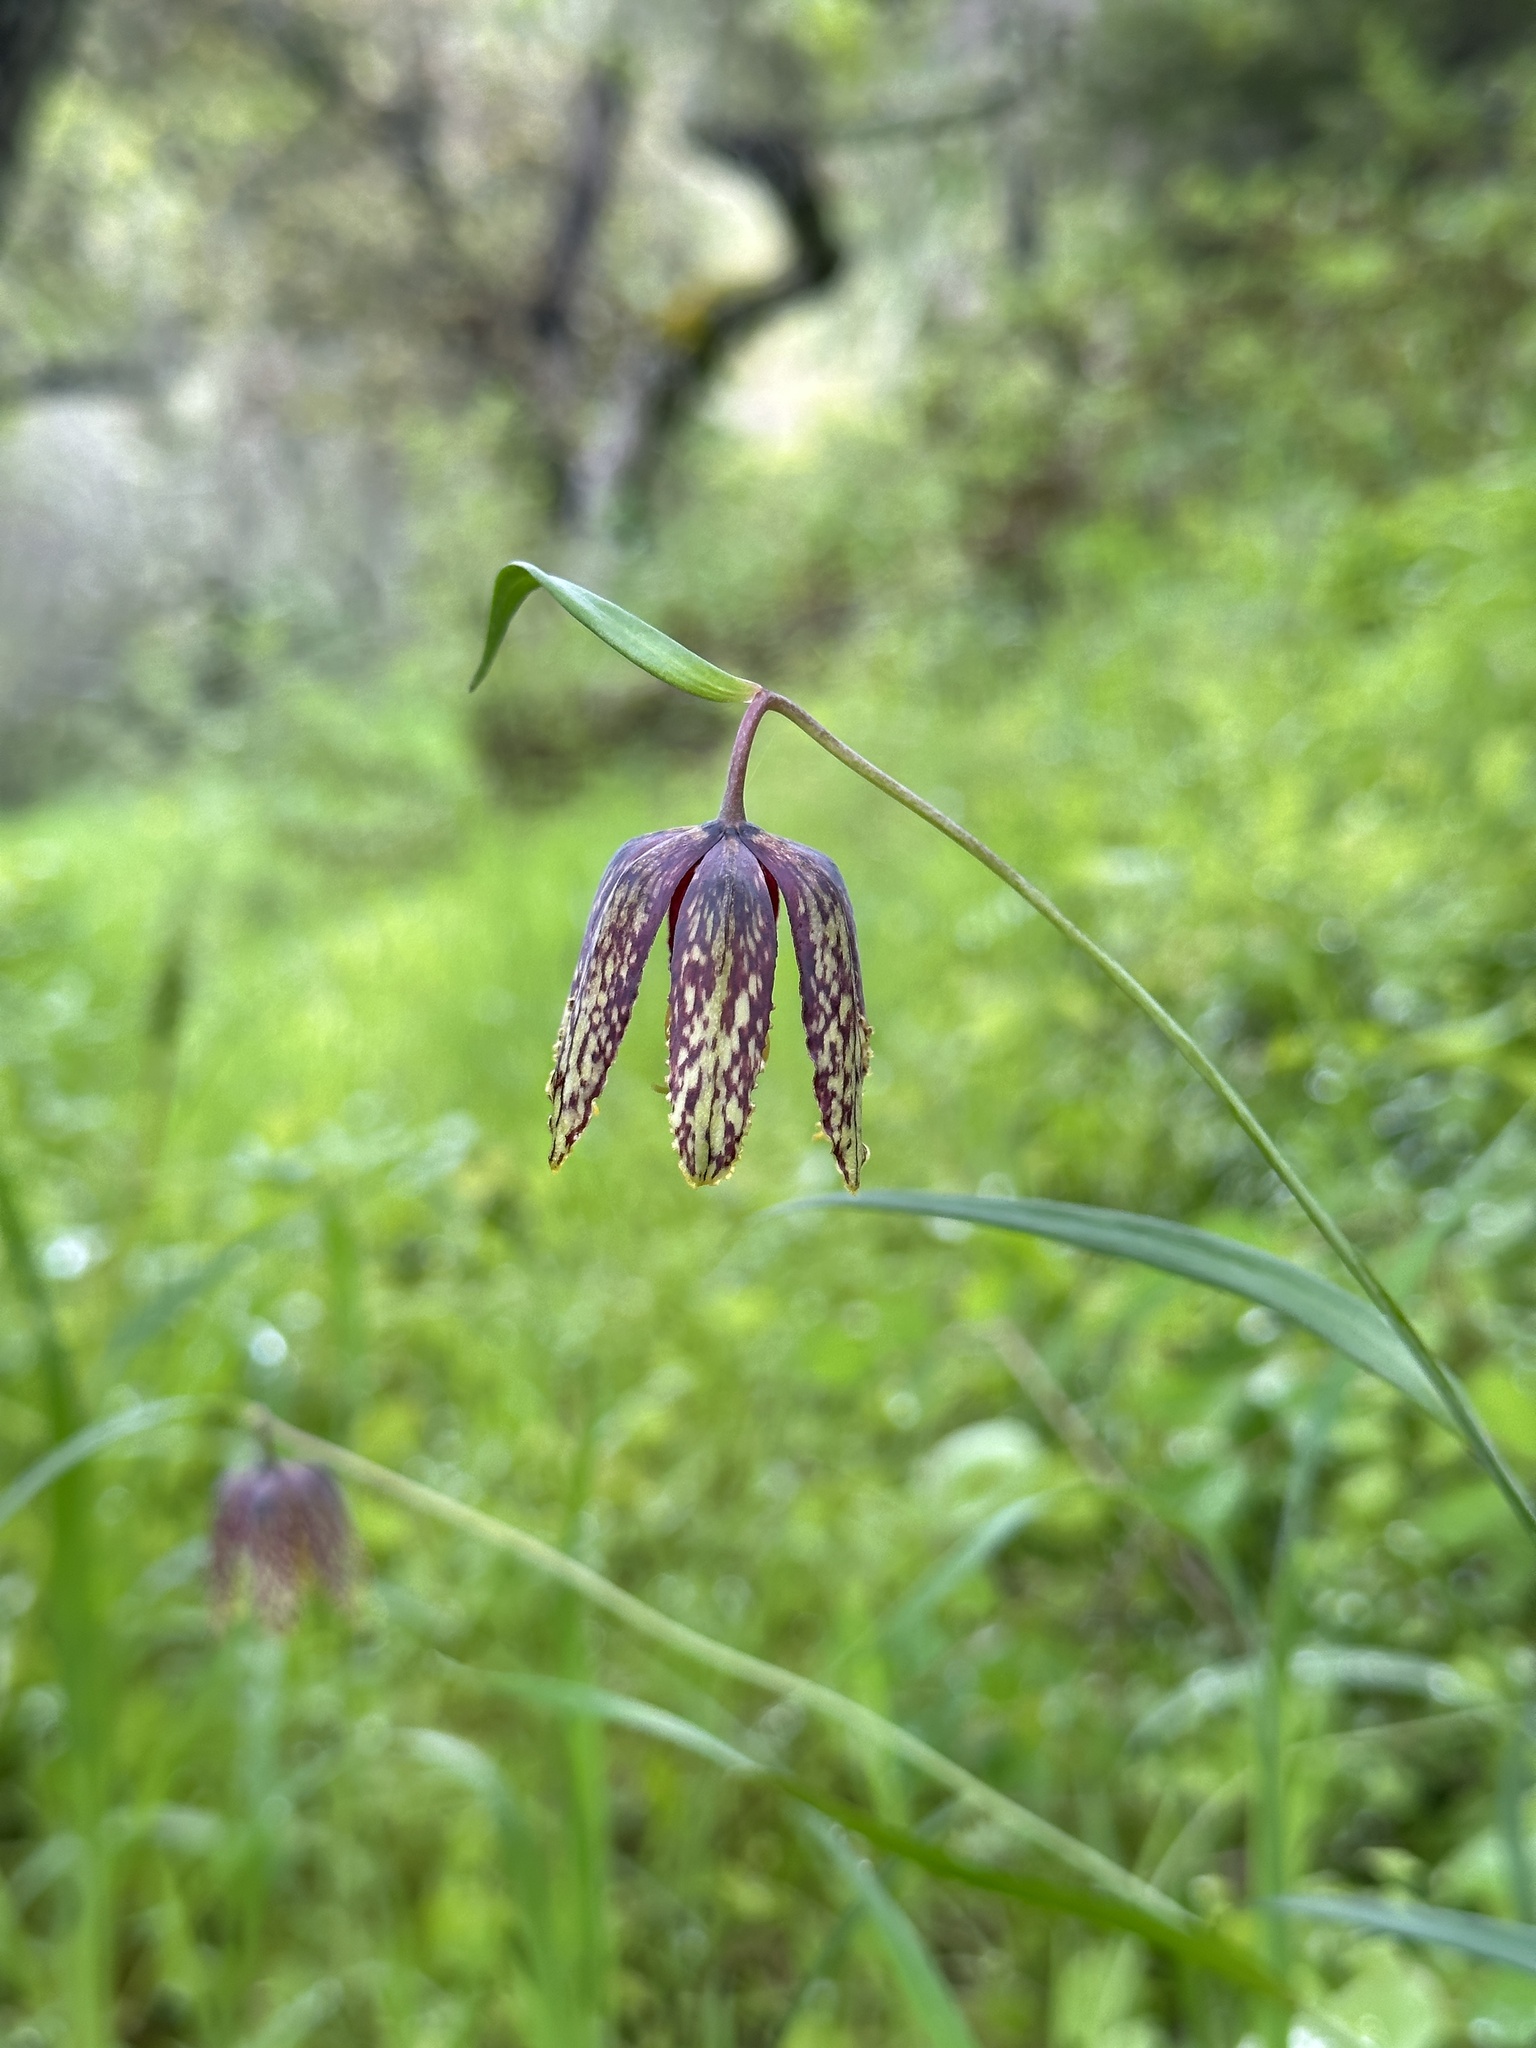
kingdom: Plantae
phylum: Tracheophyta
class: Liliopsida
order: Liliales
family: Liliaceae
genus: Fritillaria
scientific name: Fritillaria affinis
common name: Ojai fritillary
